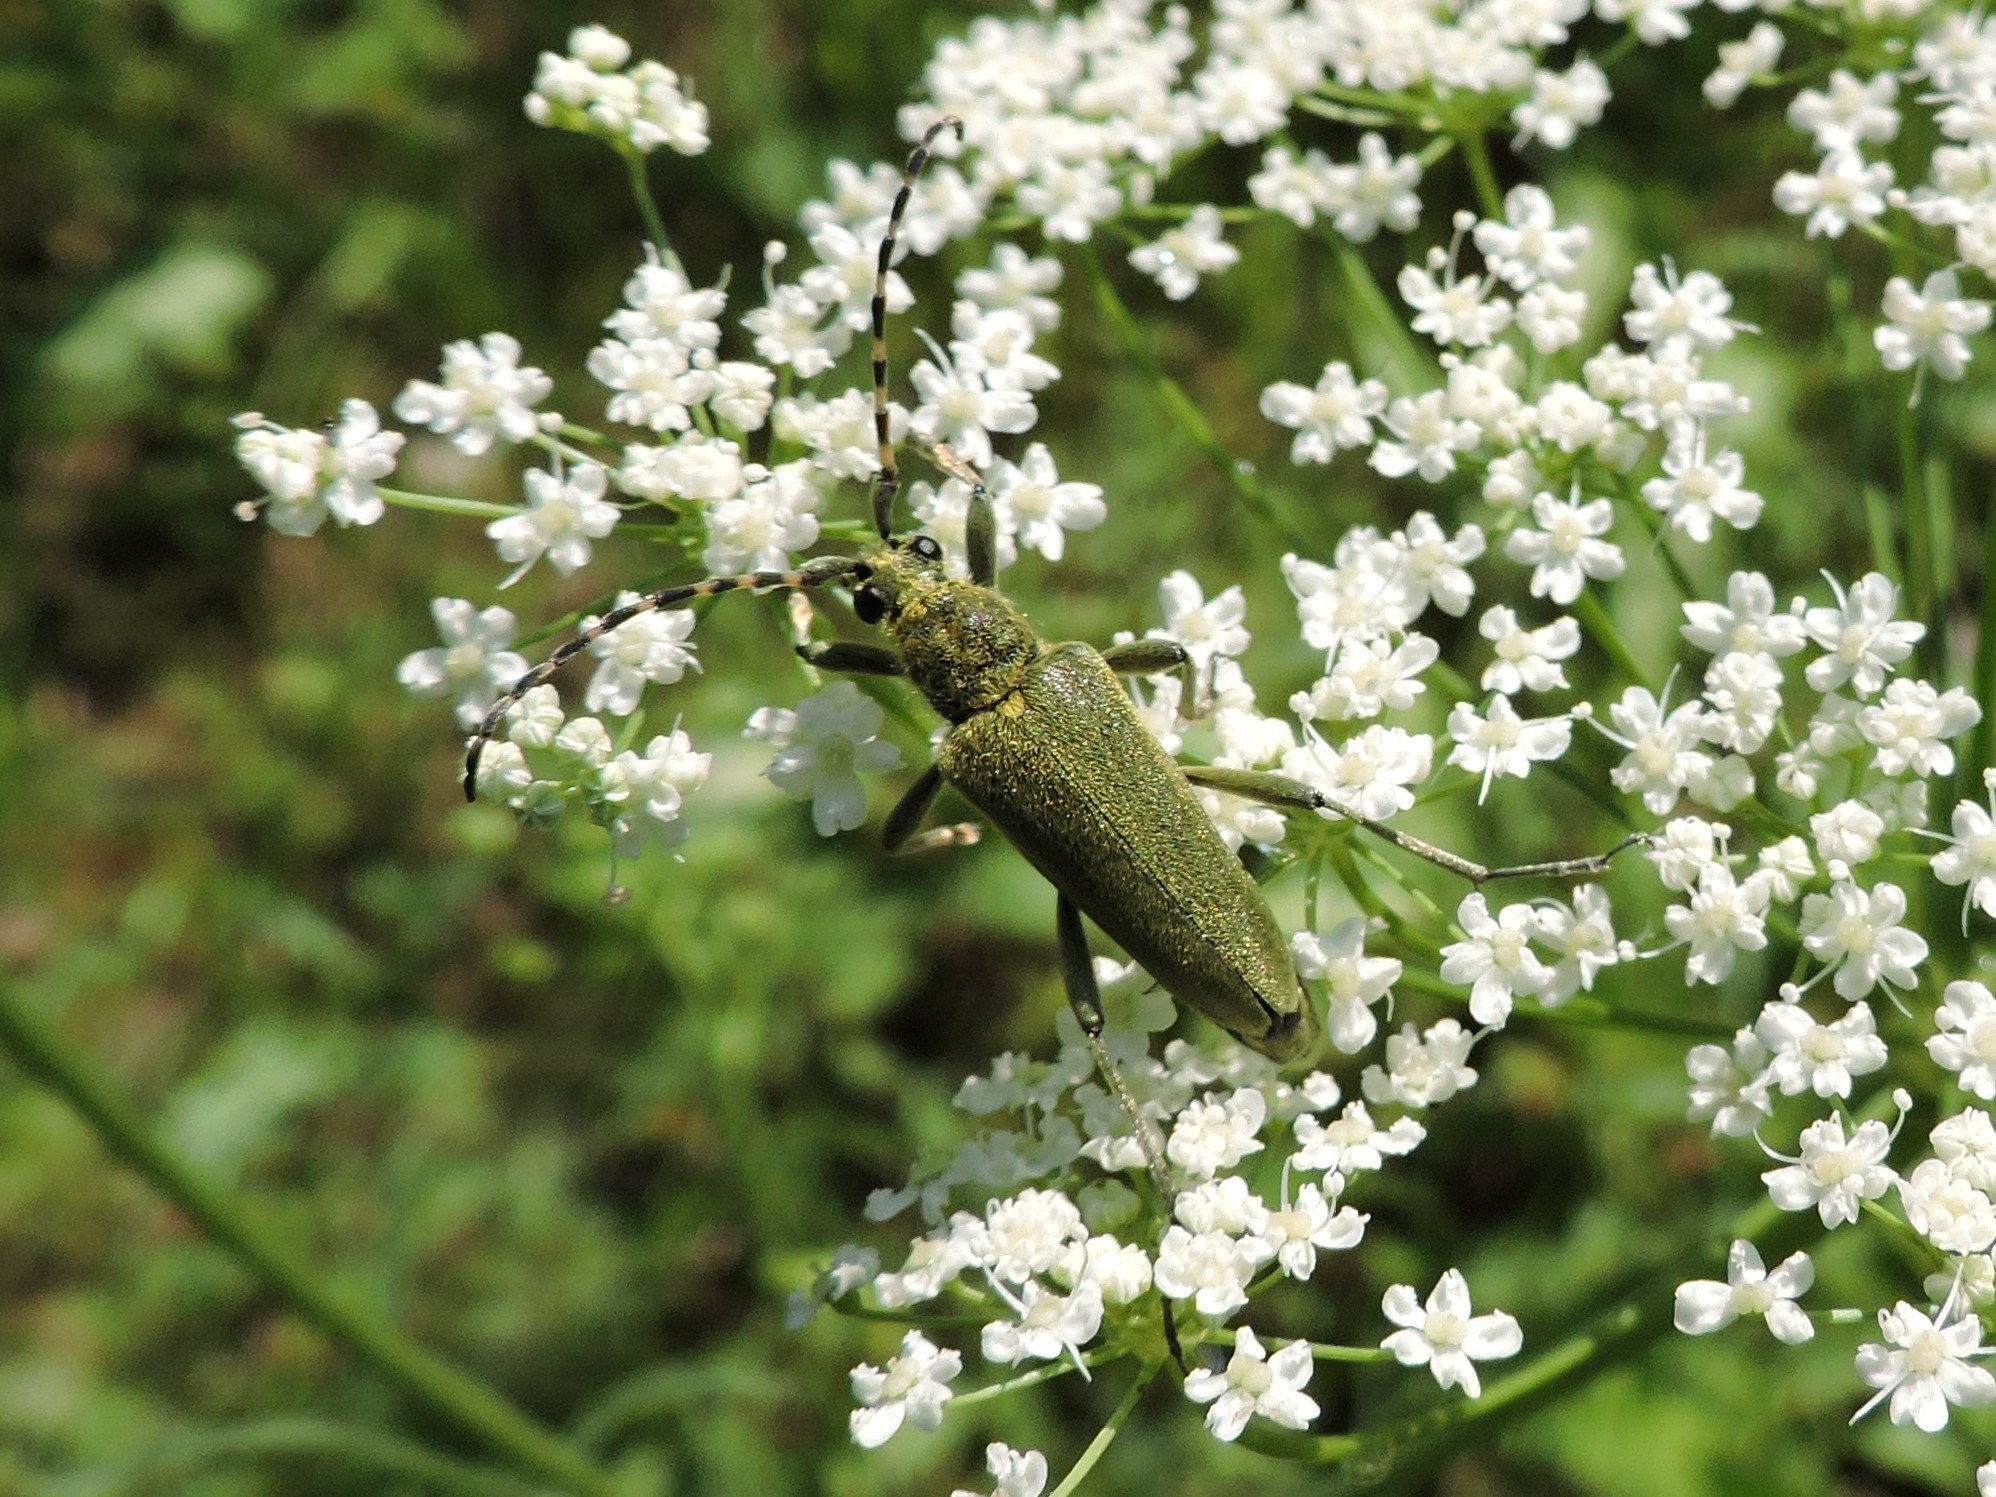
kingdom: Animalia
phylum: Arthropoda
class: Insecta
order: Coleoptera
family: Cerambycidae
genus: Lepturobosca
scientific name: Lepturobosca virens
